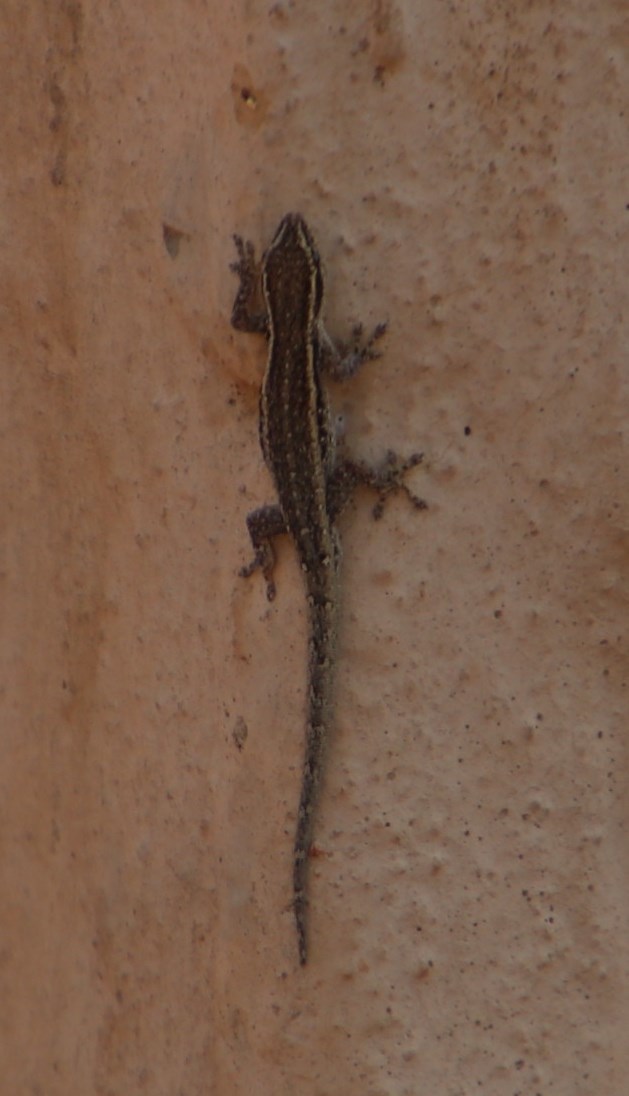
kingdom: Animalia
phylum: Chordata
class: Squamata
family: Gekkonidae
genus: Lygodactylus
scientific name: Lygodactylus capensis
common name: Cape dwarf gecko
